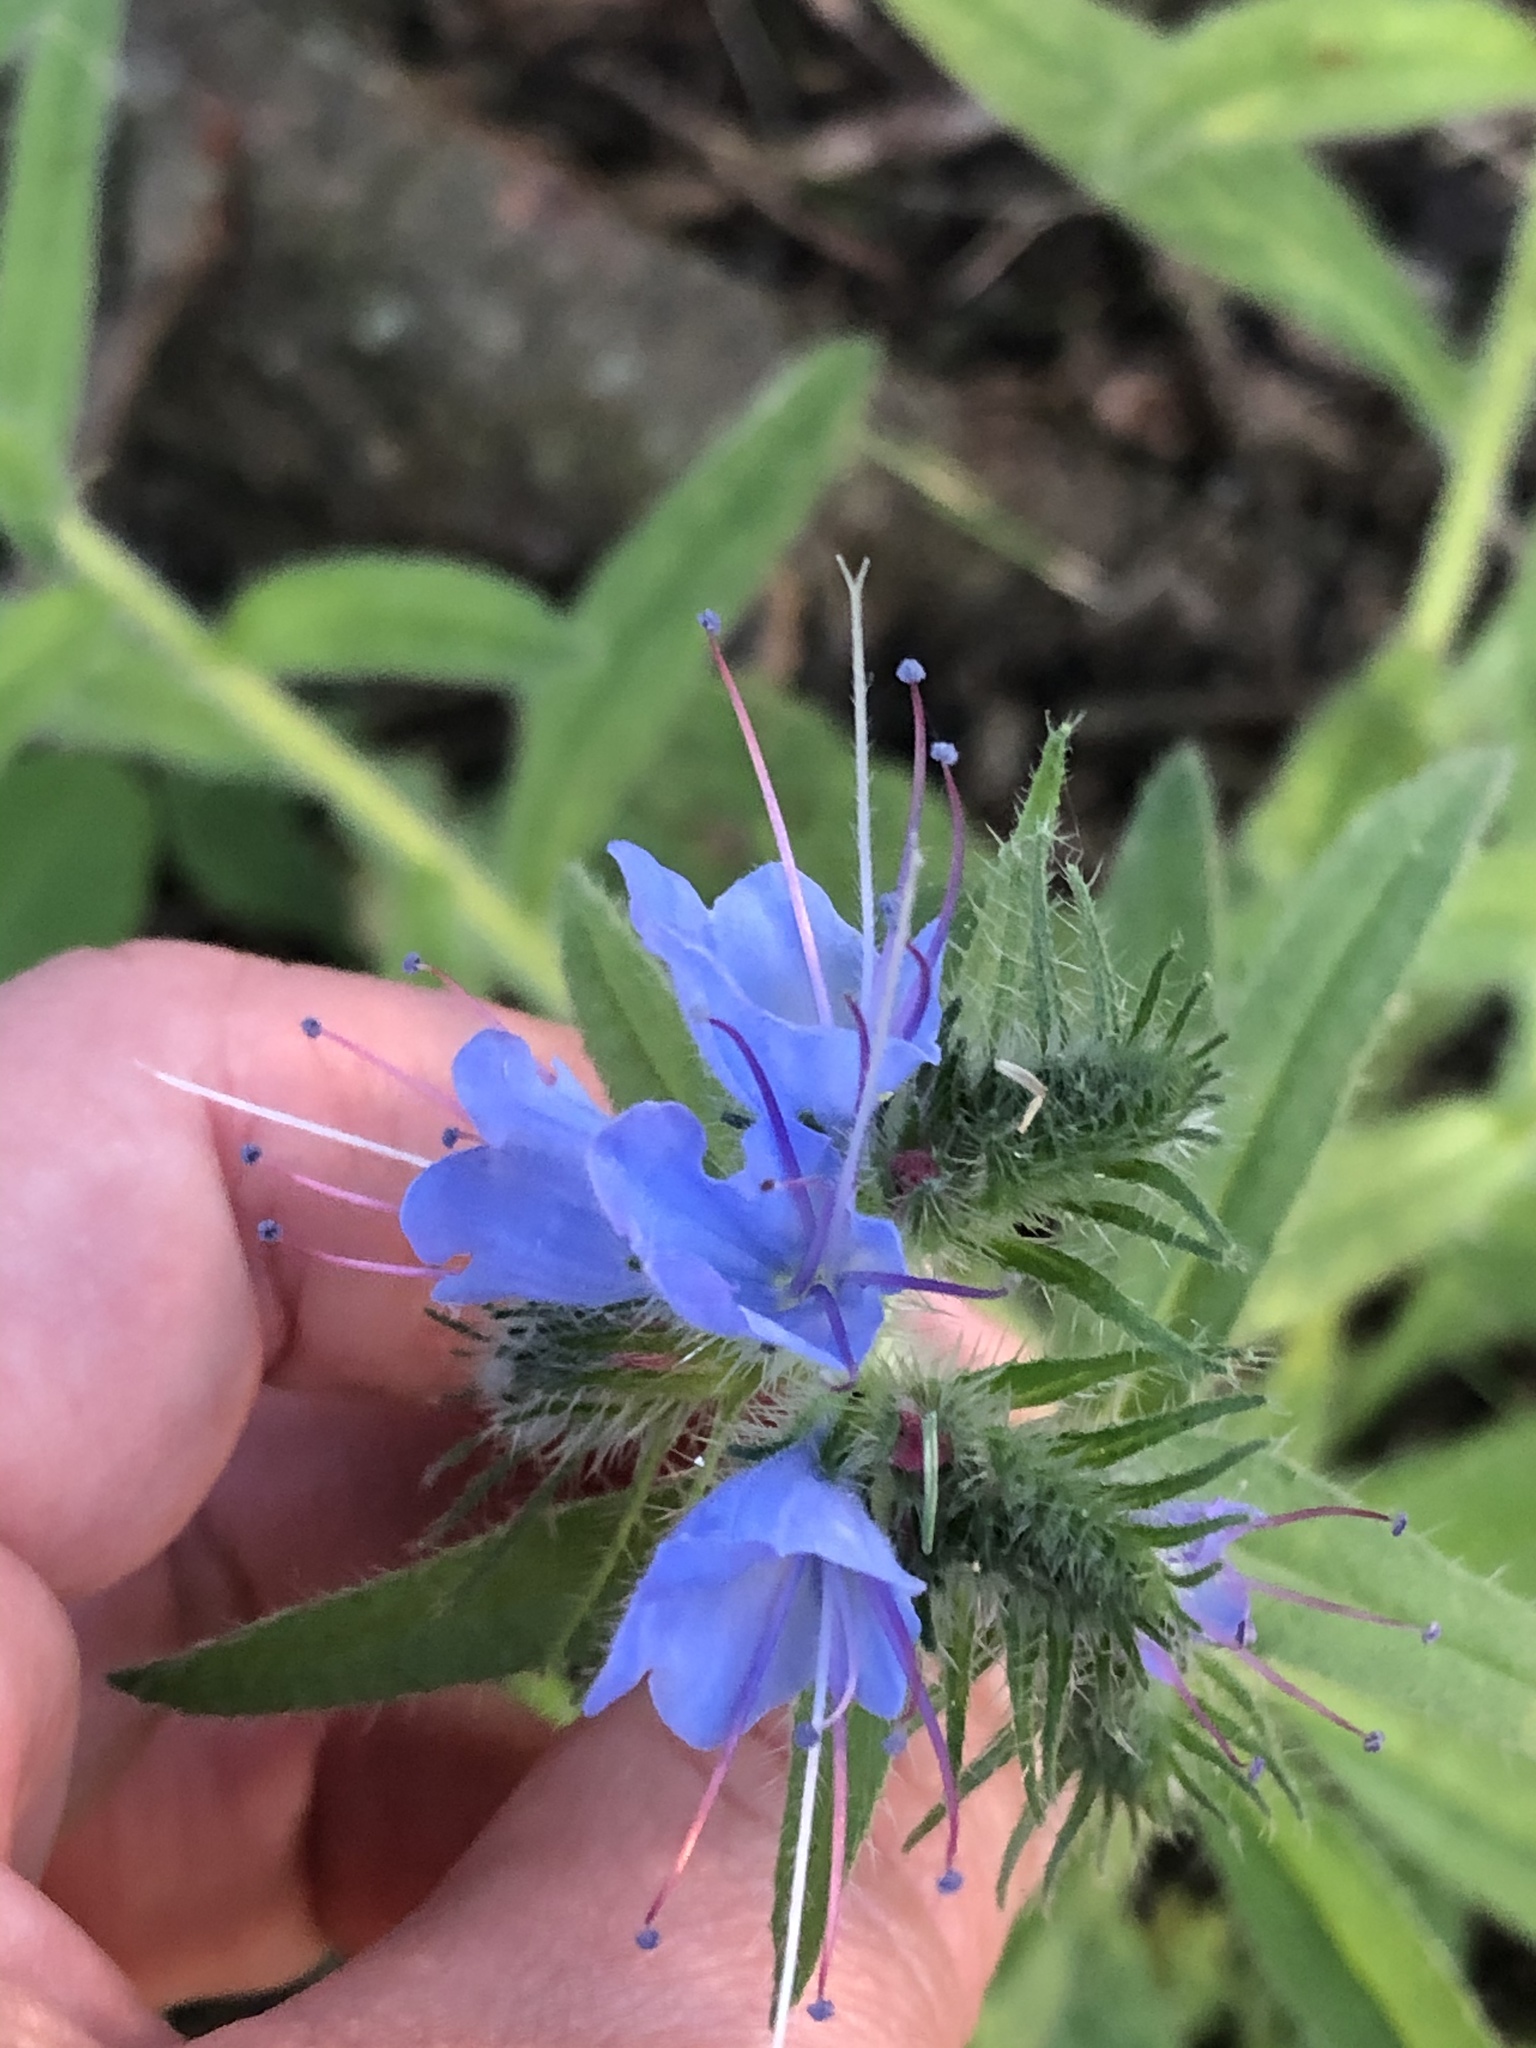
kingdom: Plantae
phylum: Tracheophyta
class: Magnoliopsida
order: Boraginales
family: Boraginaceae
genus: Echium
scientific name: Echium vulgare
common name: Common viper's bugloss
